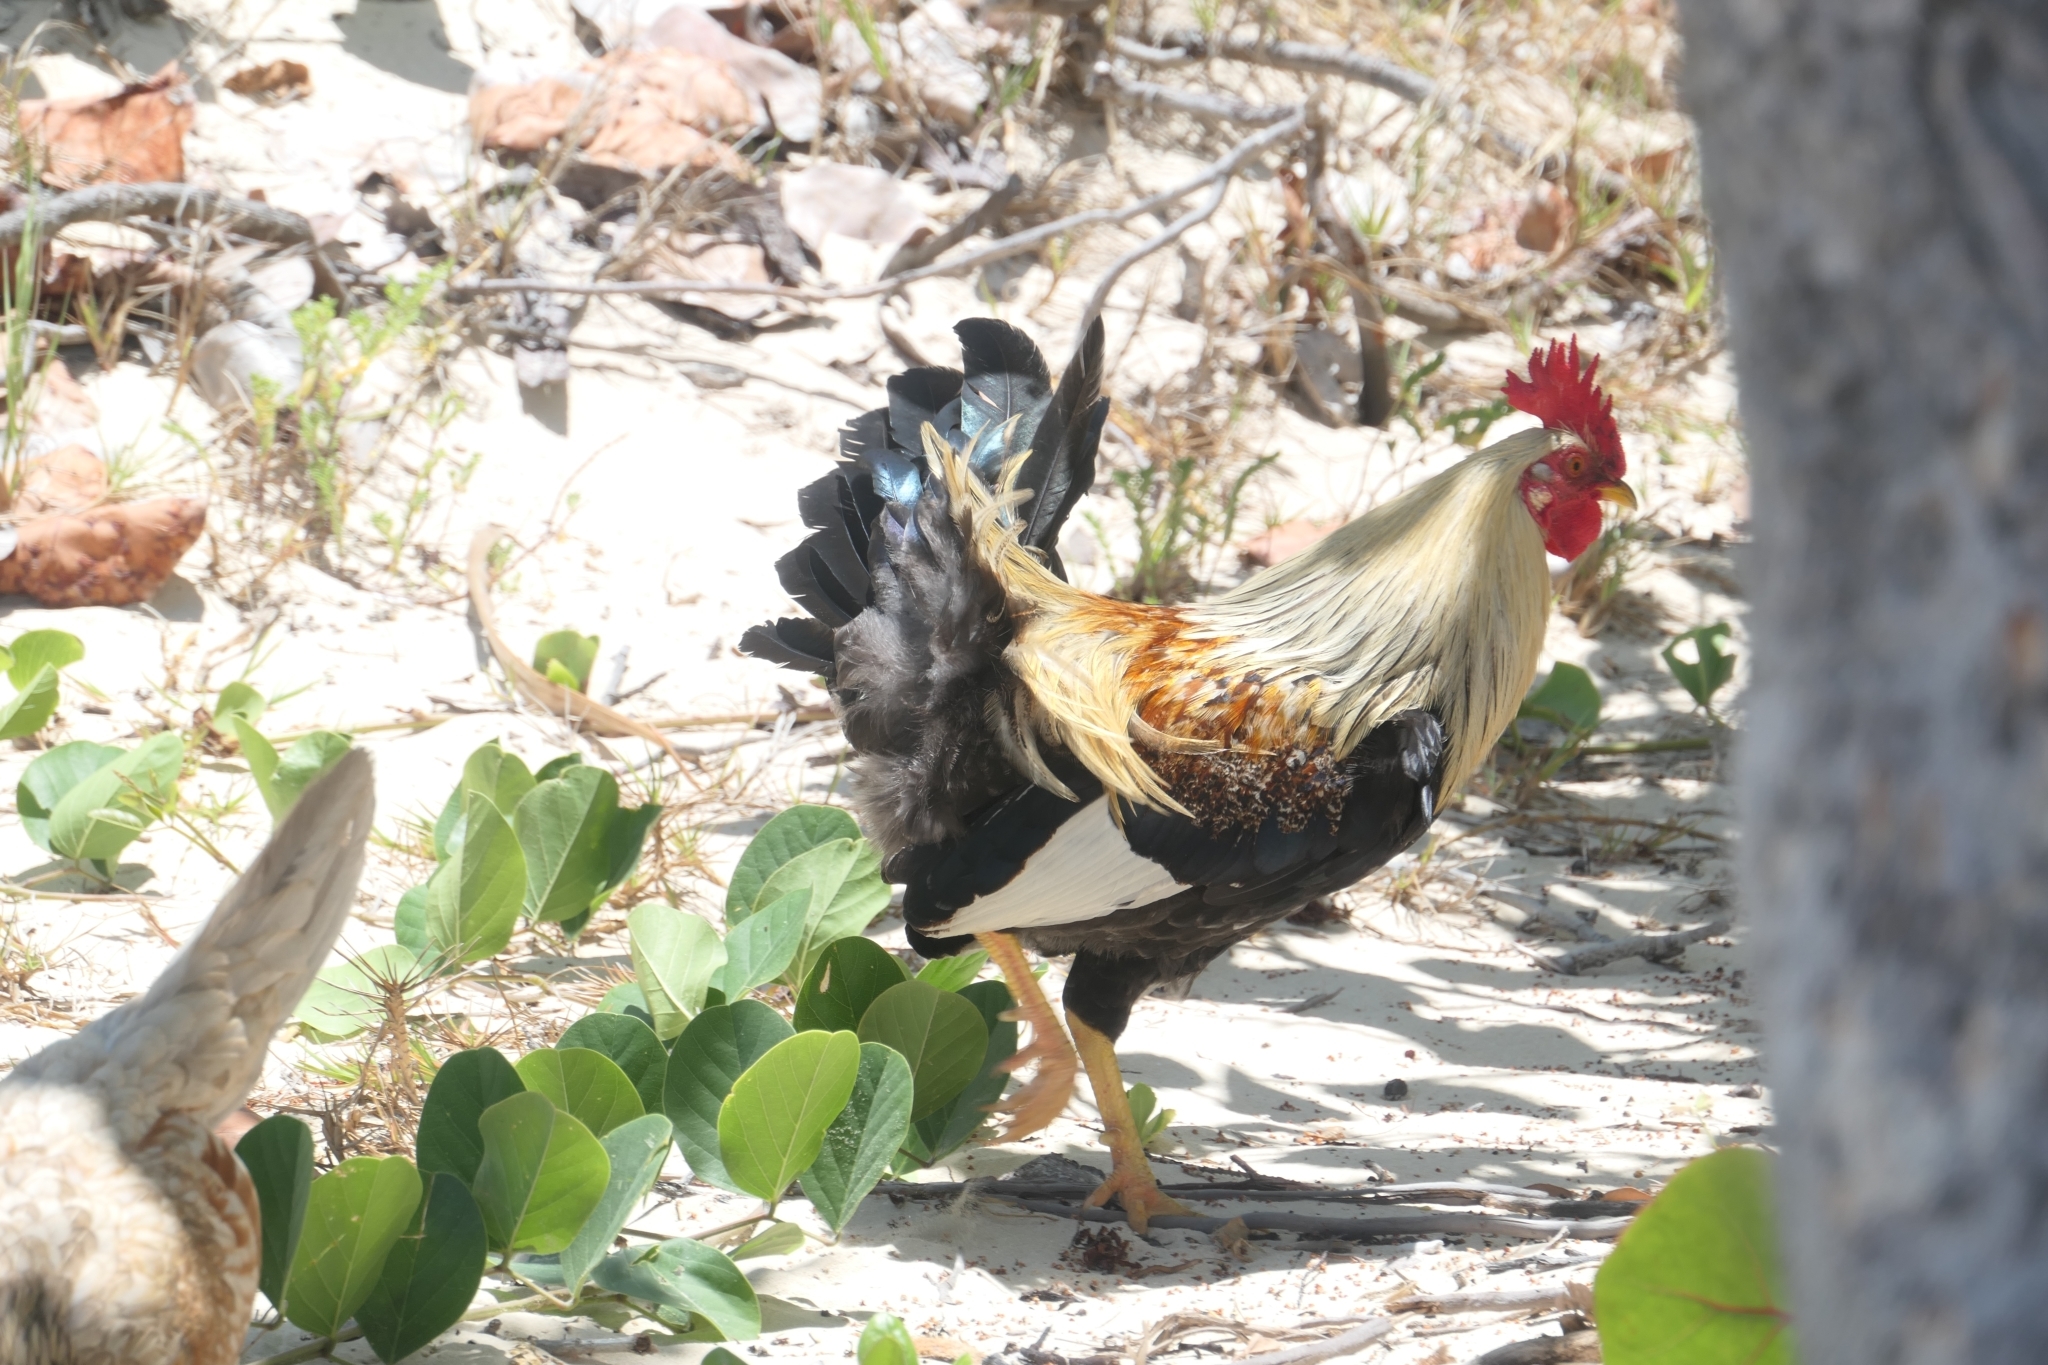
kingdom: Animalia
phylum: Chordata
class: Aves
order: Galliformes
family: Phasianidae
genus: Gallus
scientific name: Gallus gallus
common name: Red junglefowl
